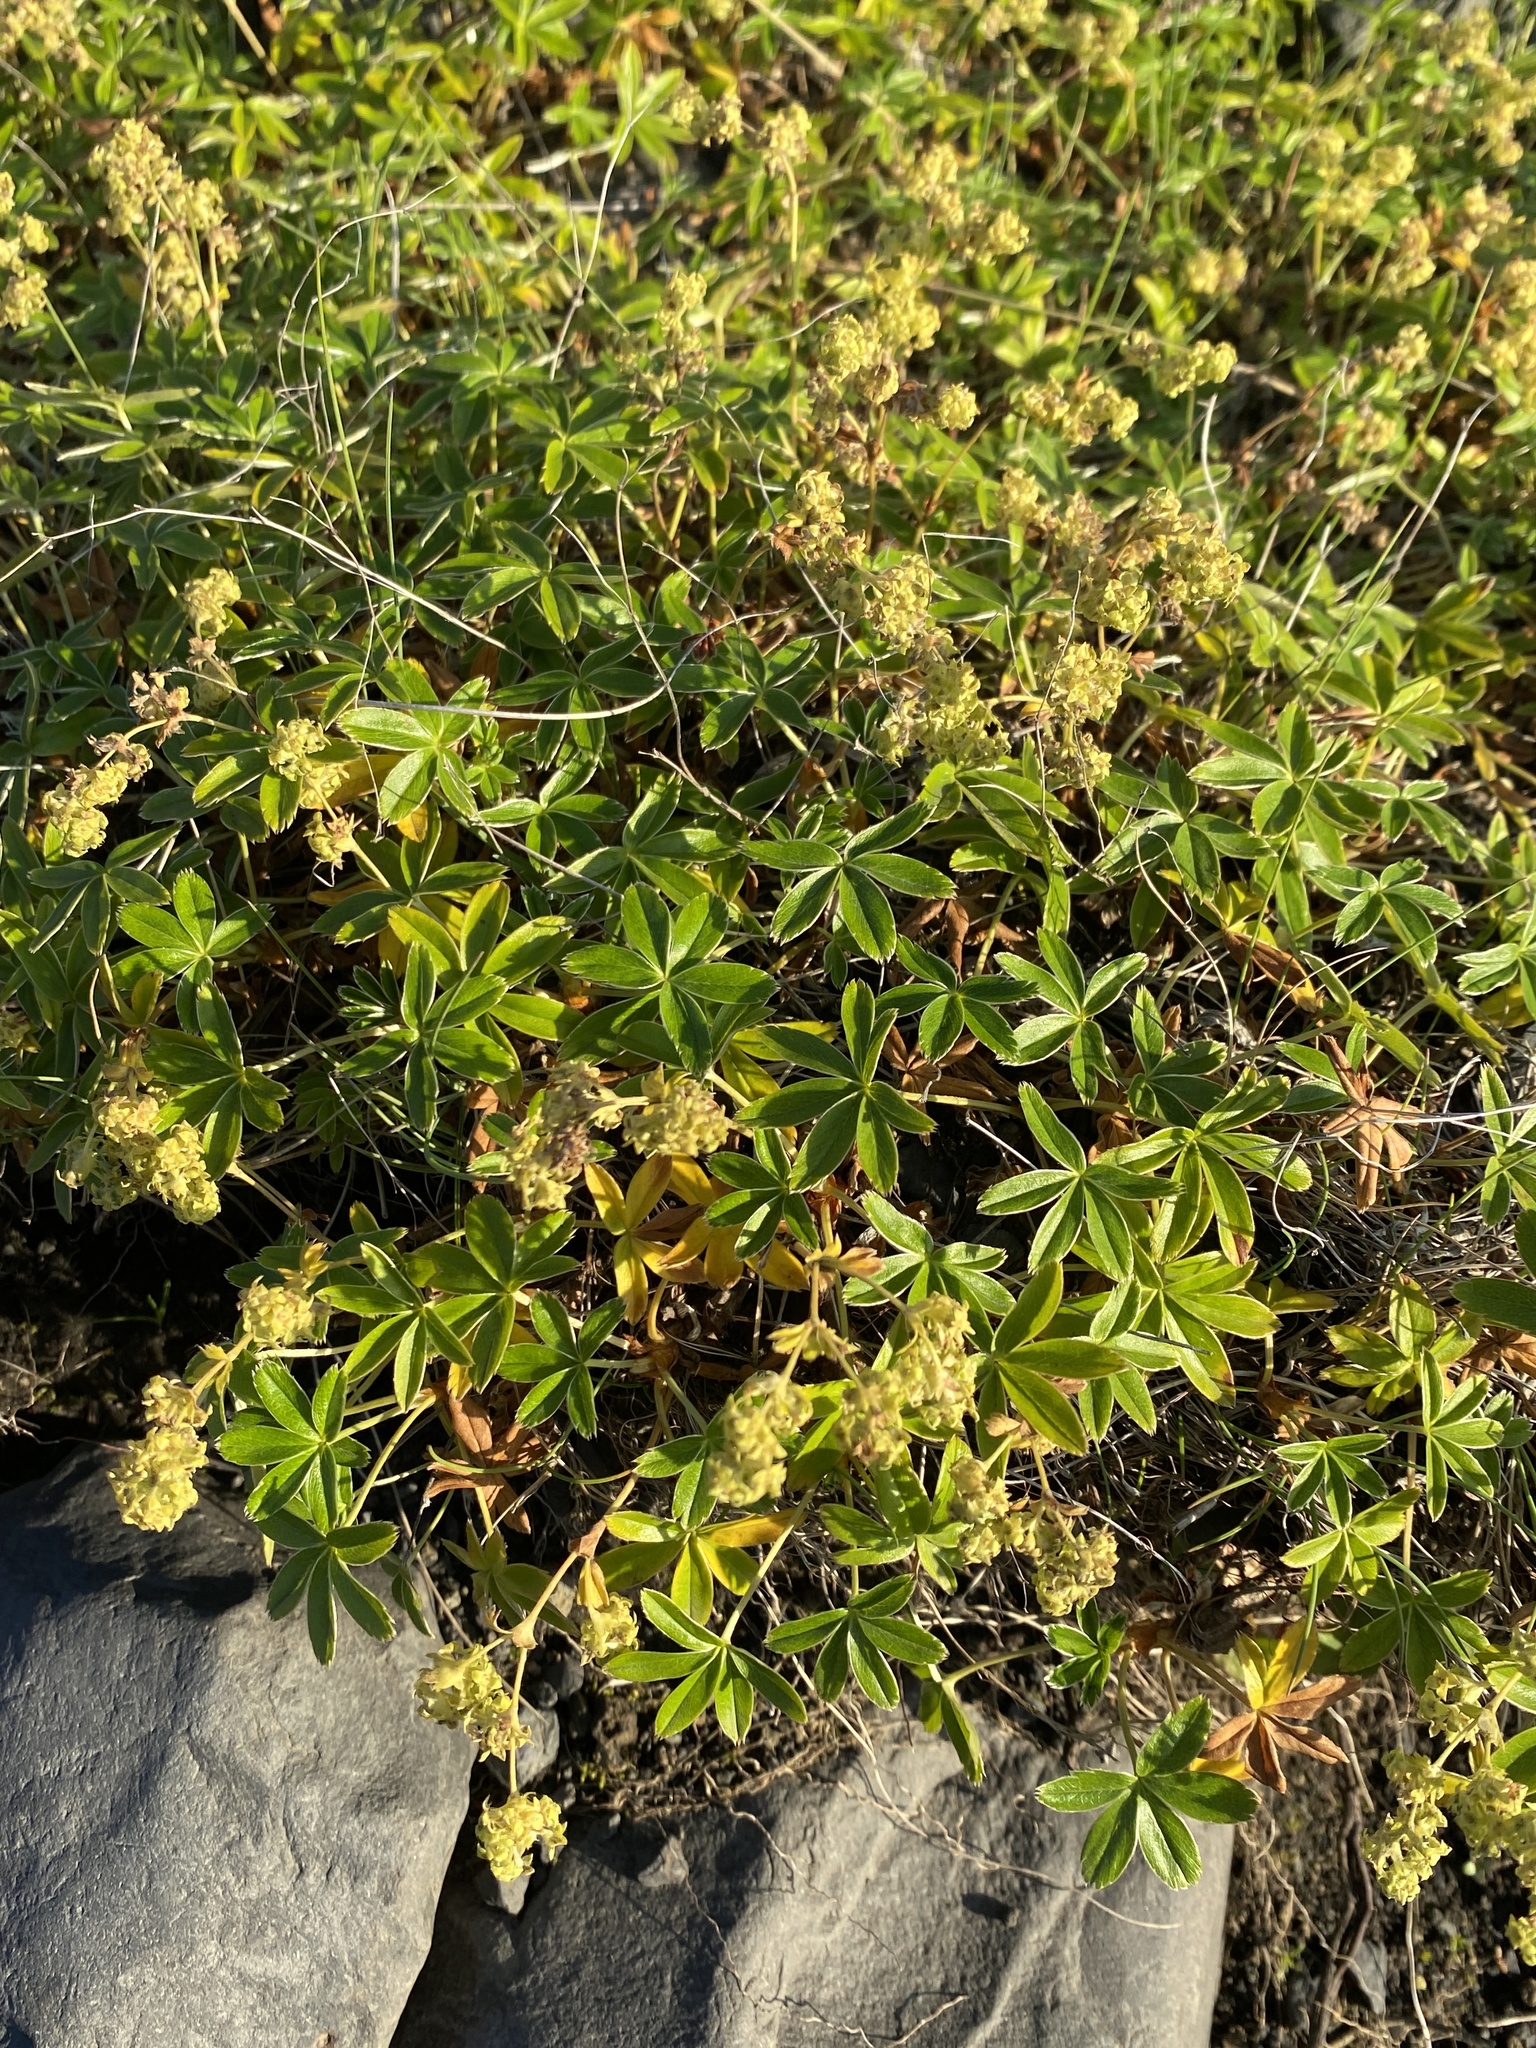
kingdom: Plantae
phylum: Tracheophyta
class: Magnoliopsida
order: Rosales
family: Rosaceae
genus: Alchemilla
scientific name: Alchemilla alpina
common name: Alpine lady's-mantle
